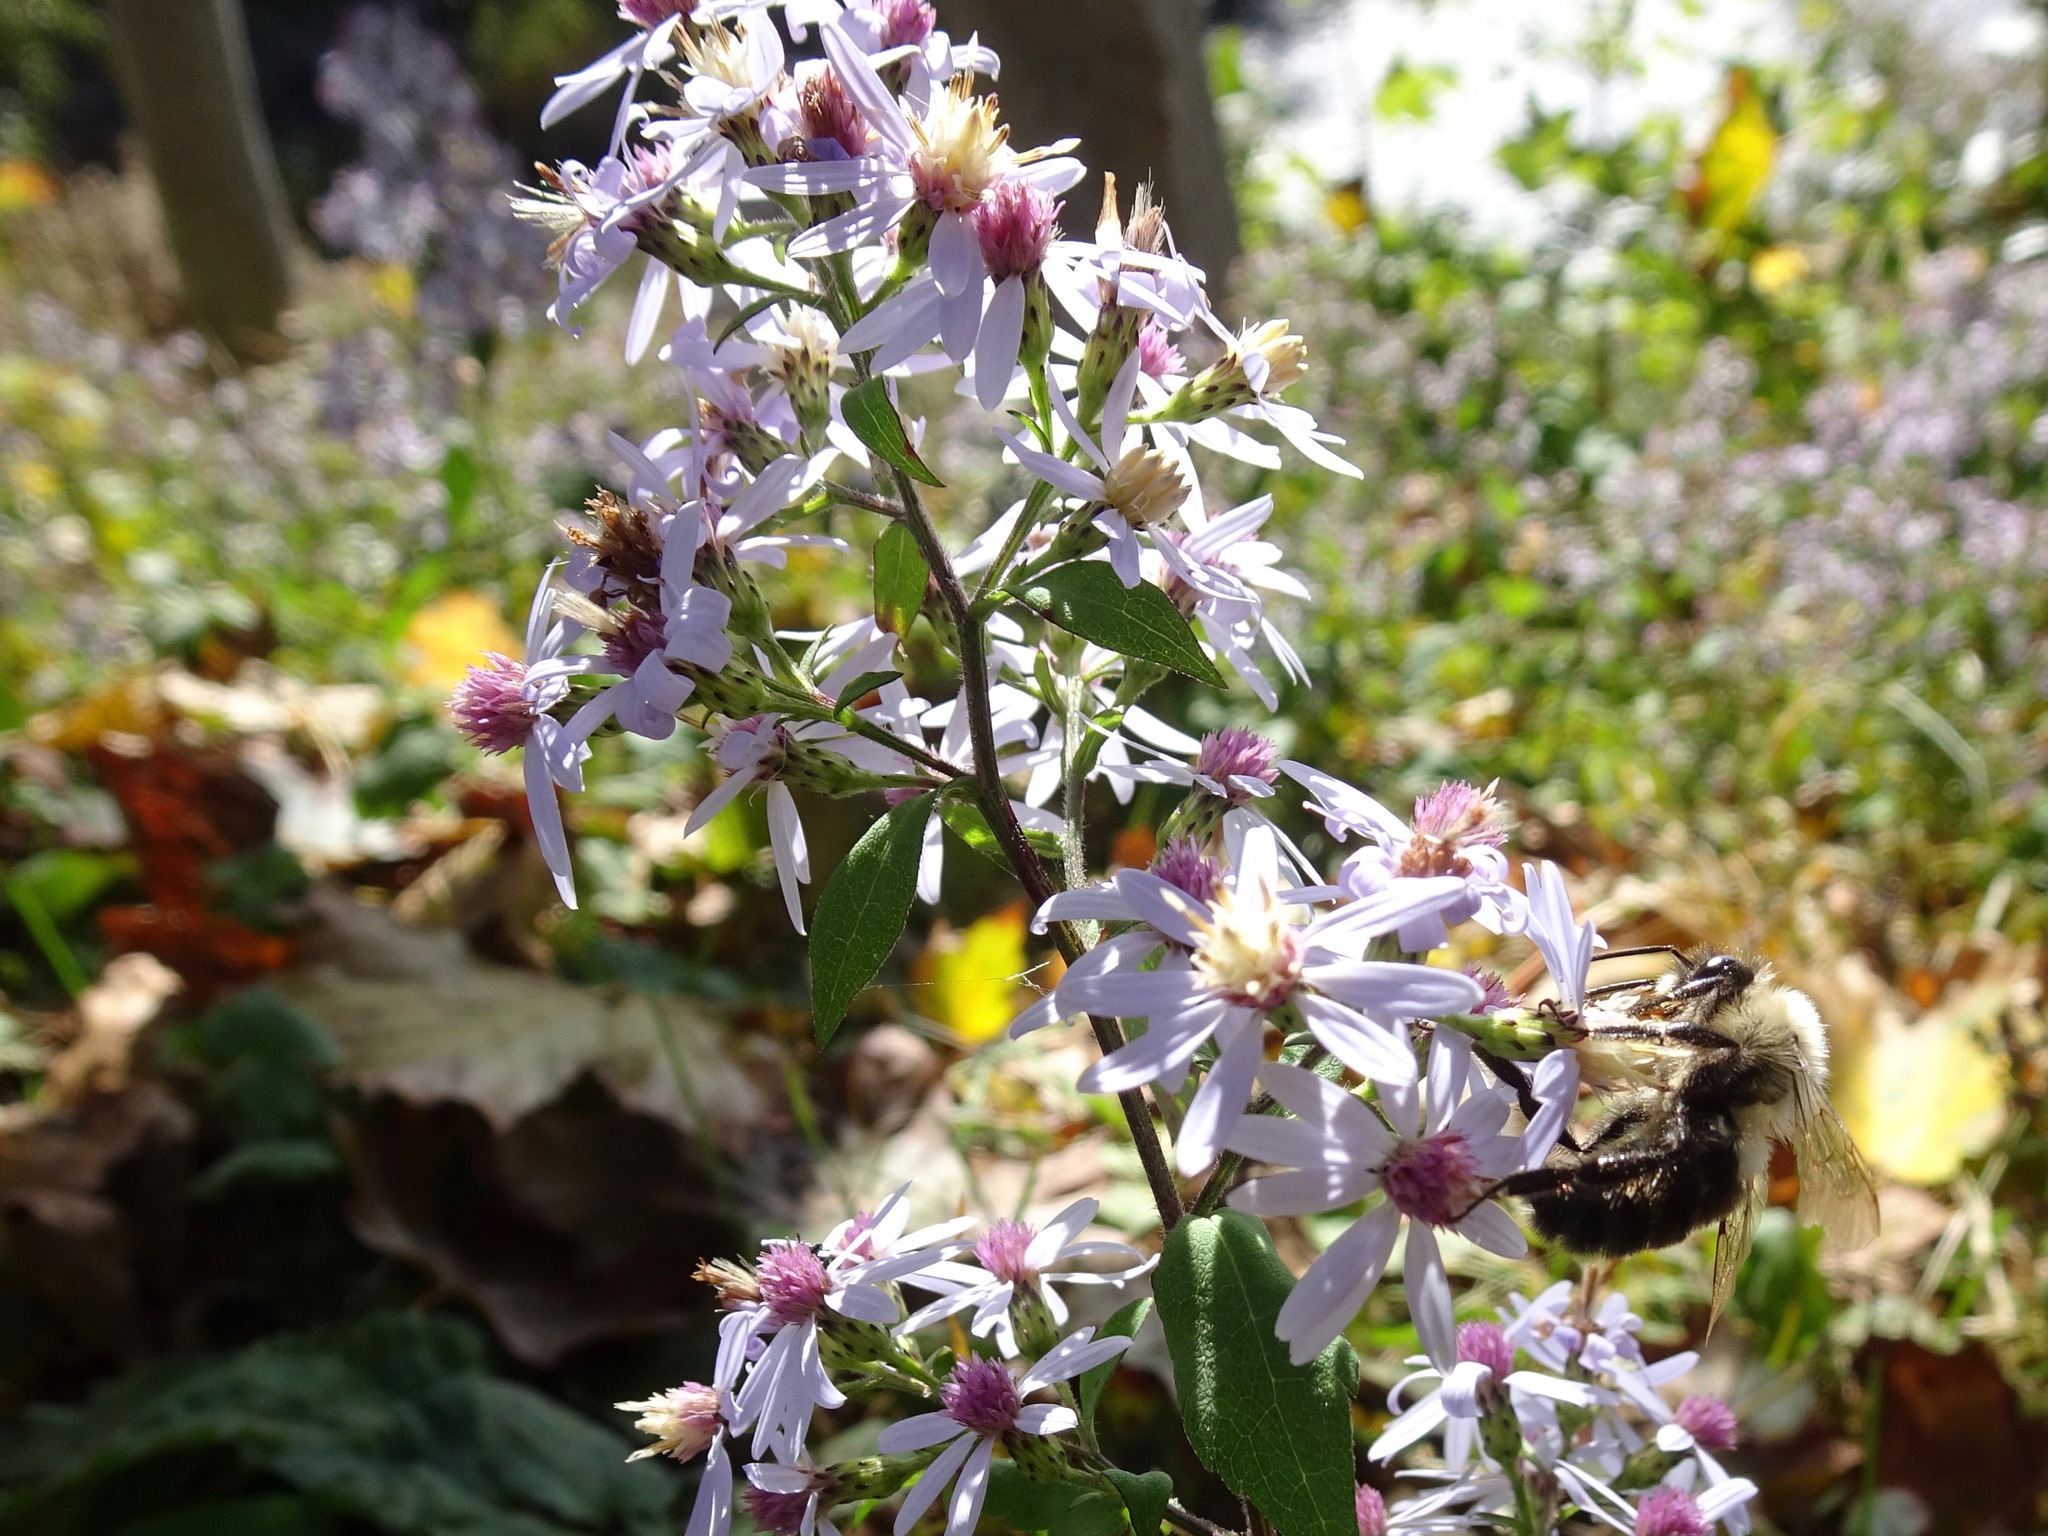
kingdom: Animalia
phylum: Arthropoda
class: Insecta
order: Hymenoptera
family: Apidae
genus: Bombus
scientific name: Bombus impatiens
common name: Common eastern bumble bee
